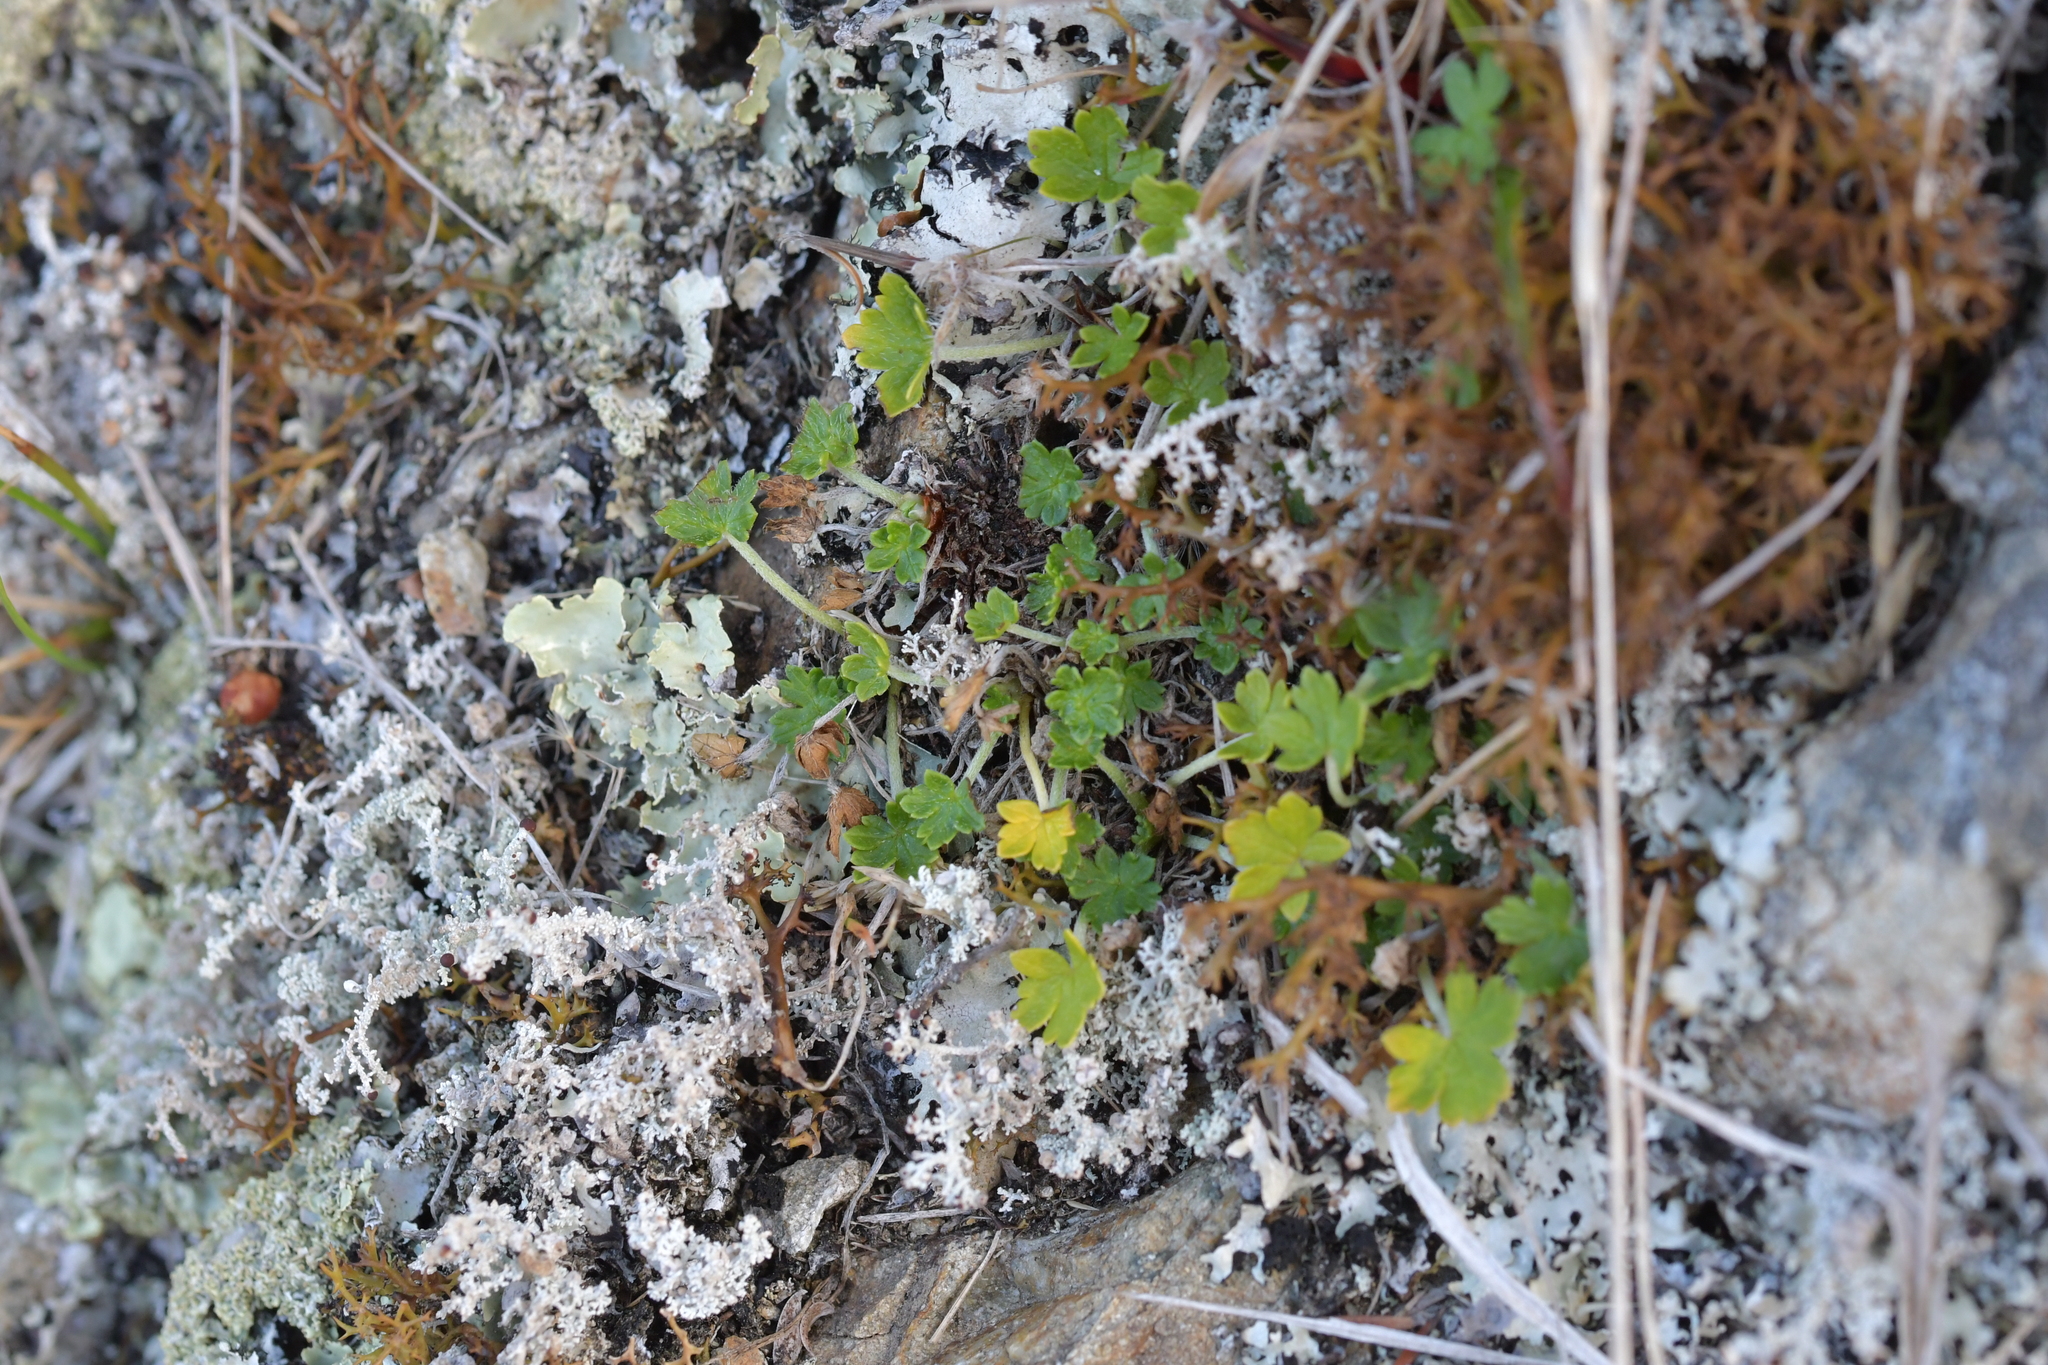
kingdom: Plantae
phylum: Tracheophyta
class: Magnoliopsida
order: Geraniales
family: Geraniaceae
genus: Geranium
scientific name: Geranium brevicaule
